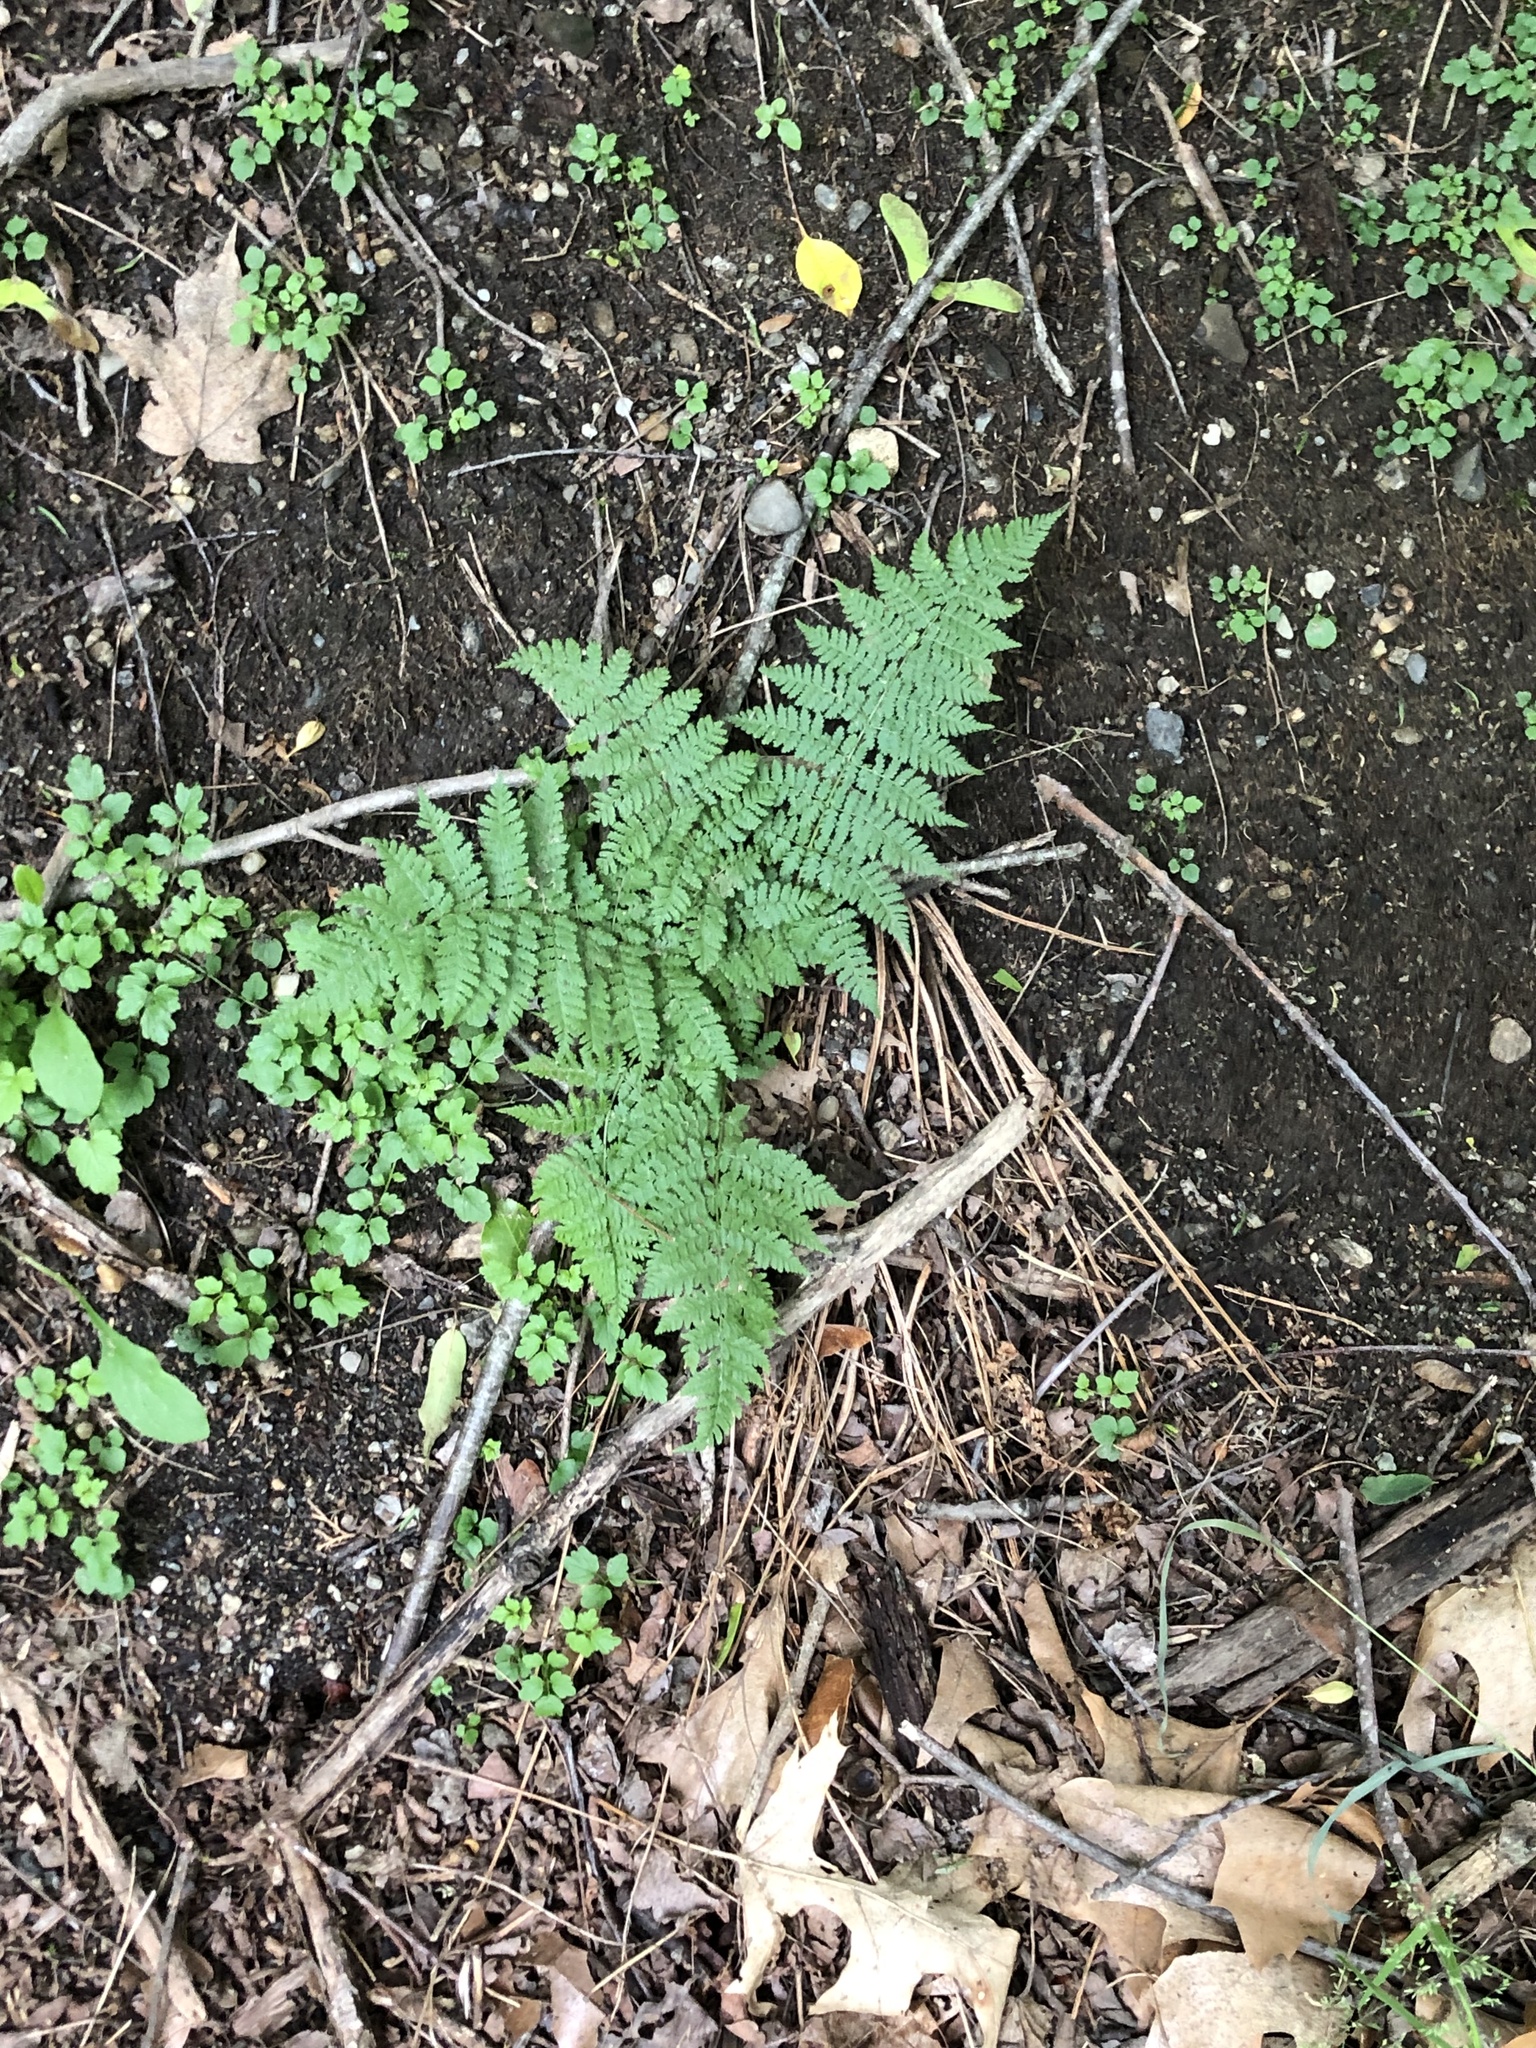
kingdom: Plantae
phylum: Tracheophyta
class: Polypodiopsida
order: Polypodiales
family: Dryopteridaceae
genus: Dryopteris
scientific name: Dryopteris intermedia
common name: Evergreen wood fern
